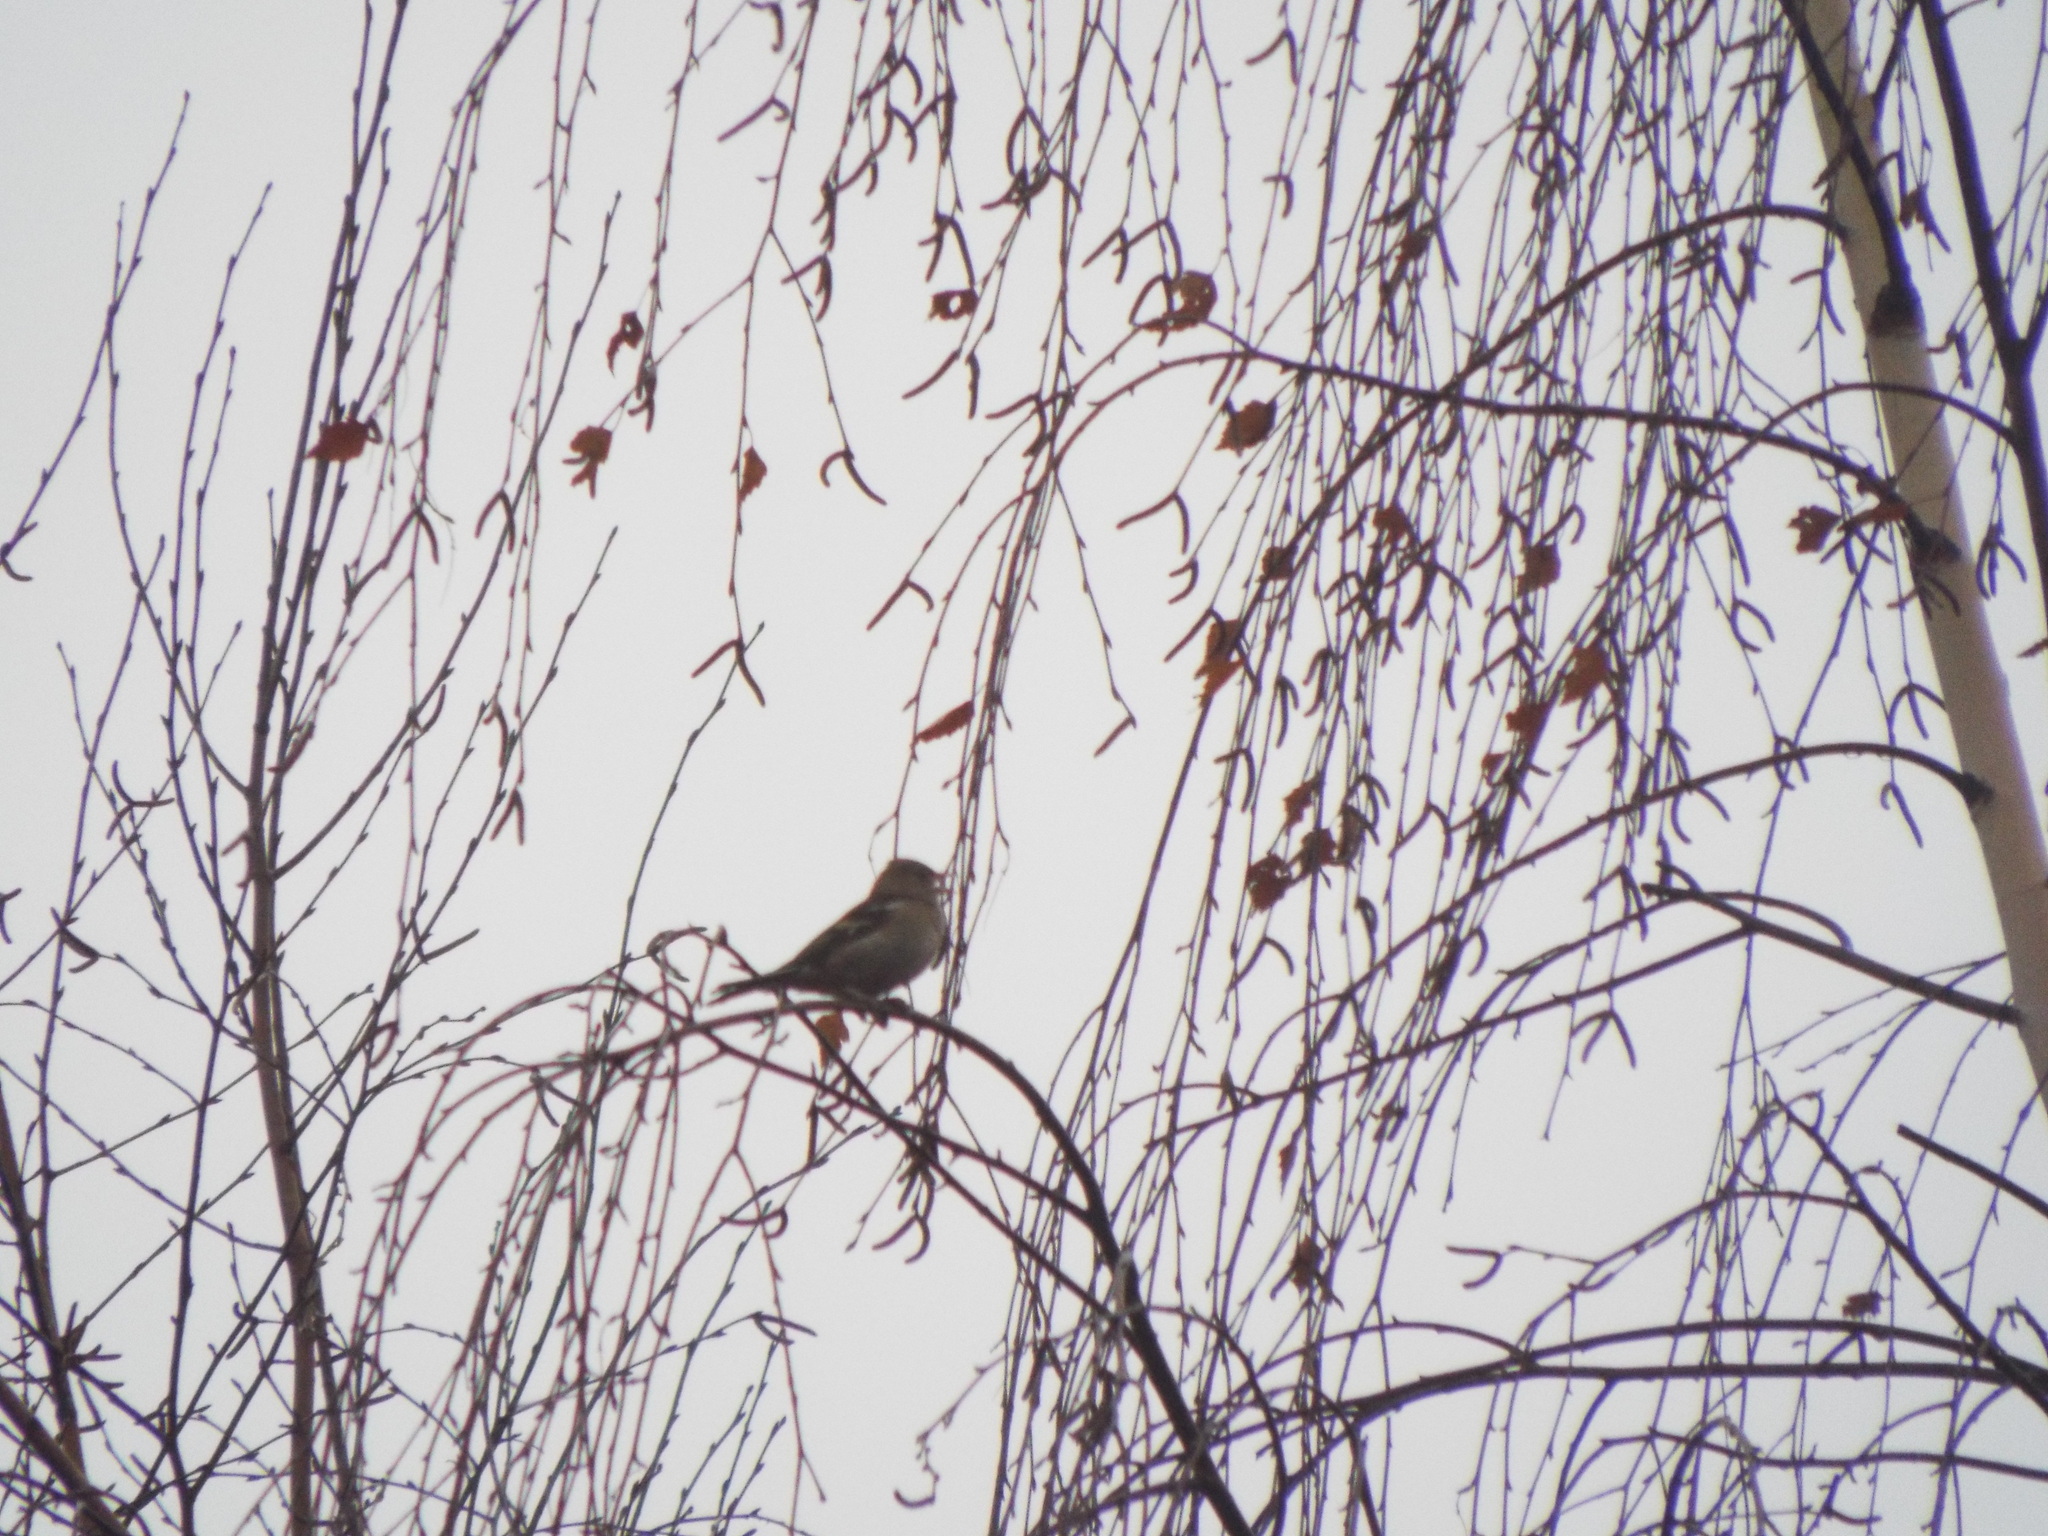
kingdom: Animalia
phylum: Chordata
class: Aves
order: Passeriformes
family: Fringillidae
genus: Fringilla
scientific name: Fringilla coelebs
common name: Common chaffinch
